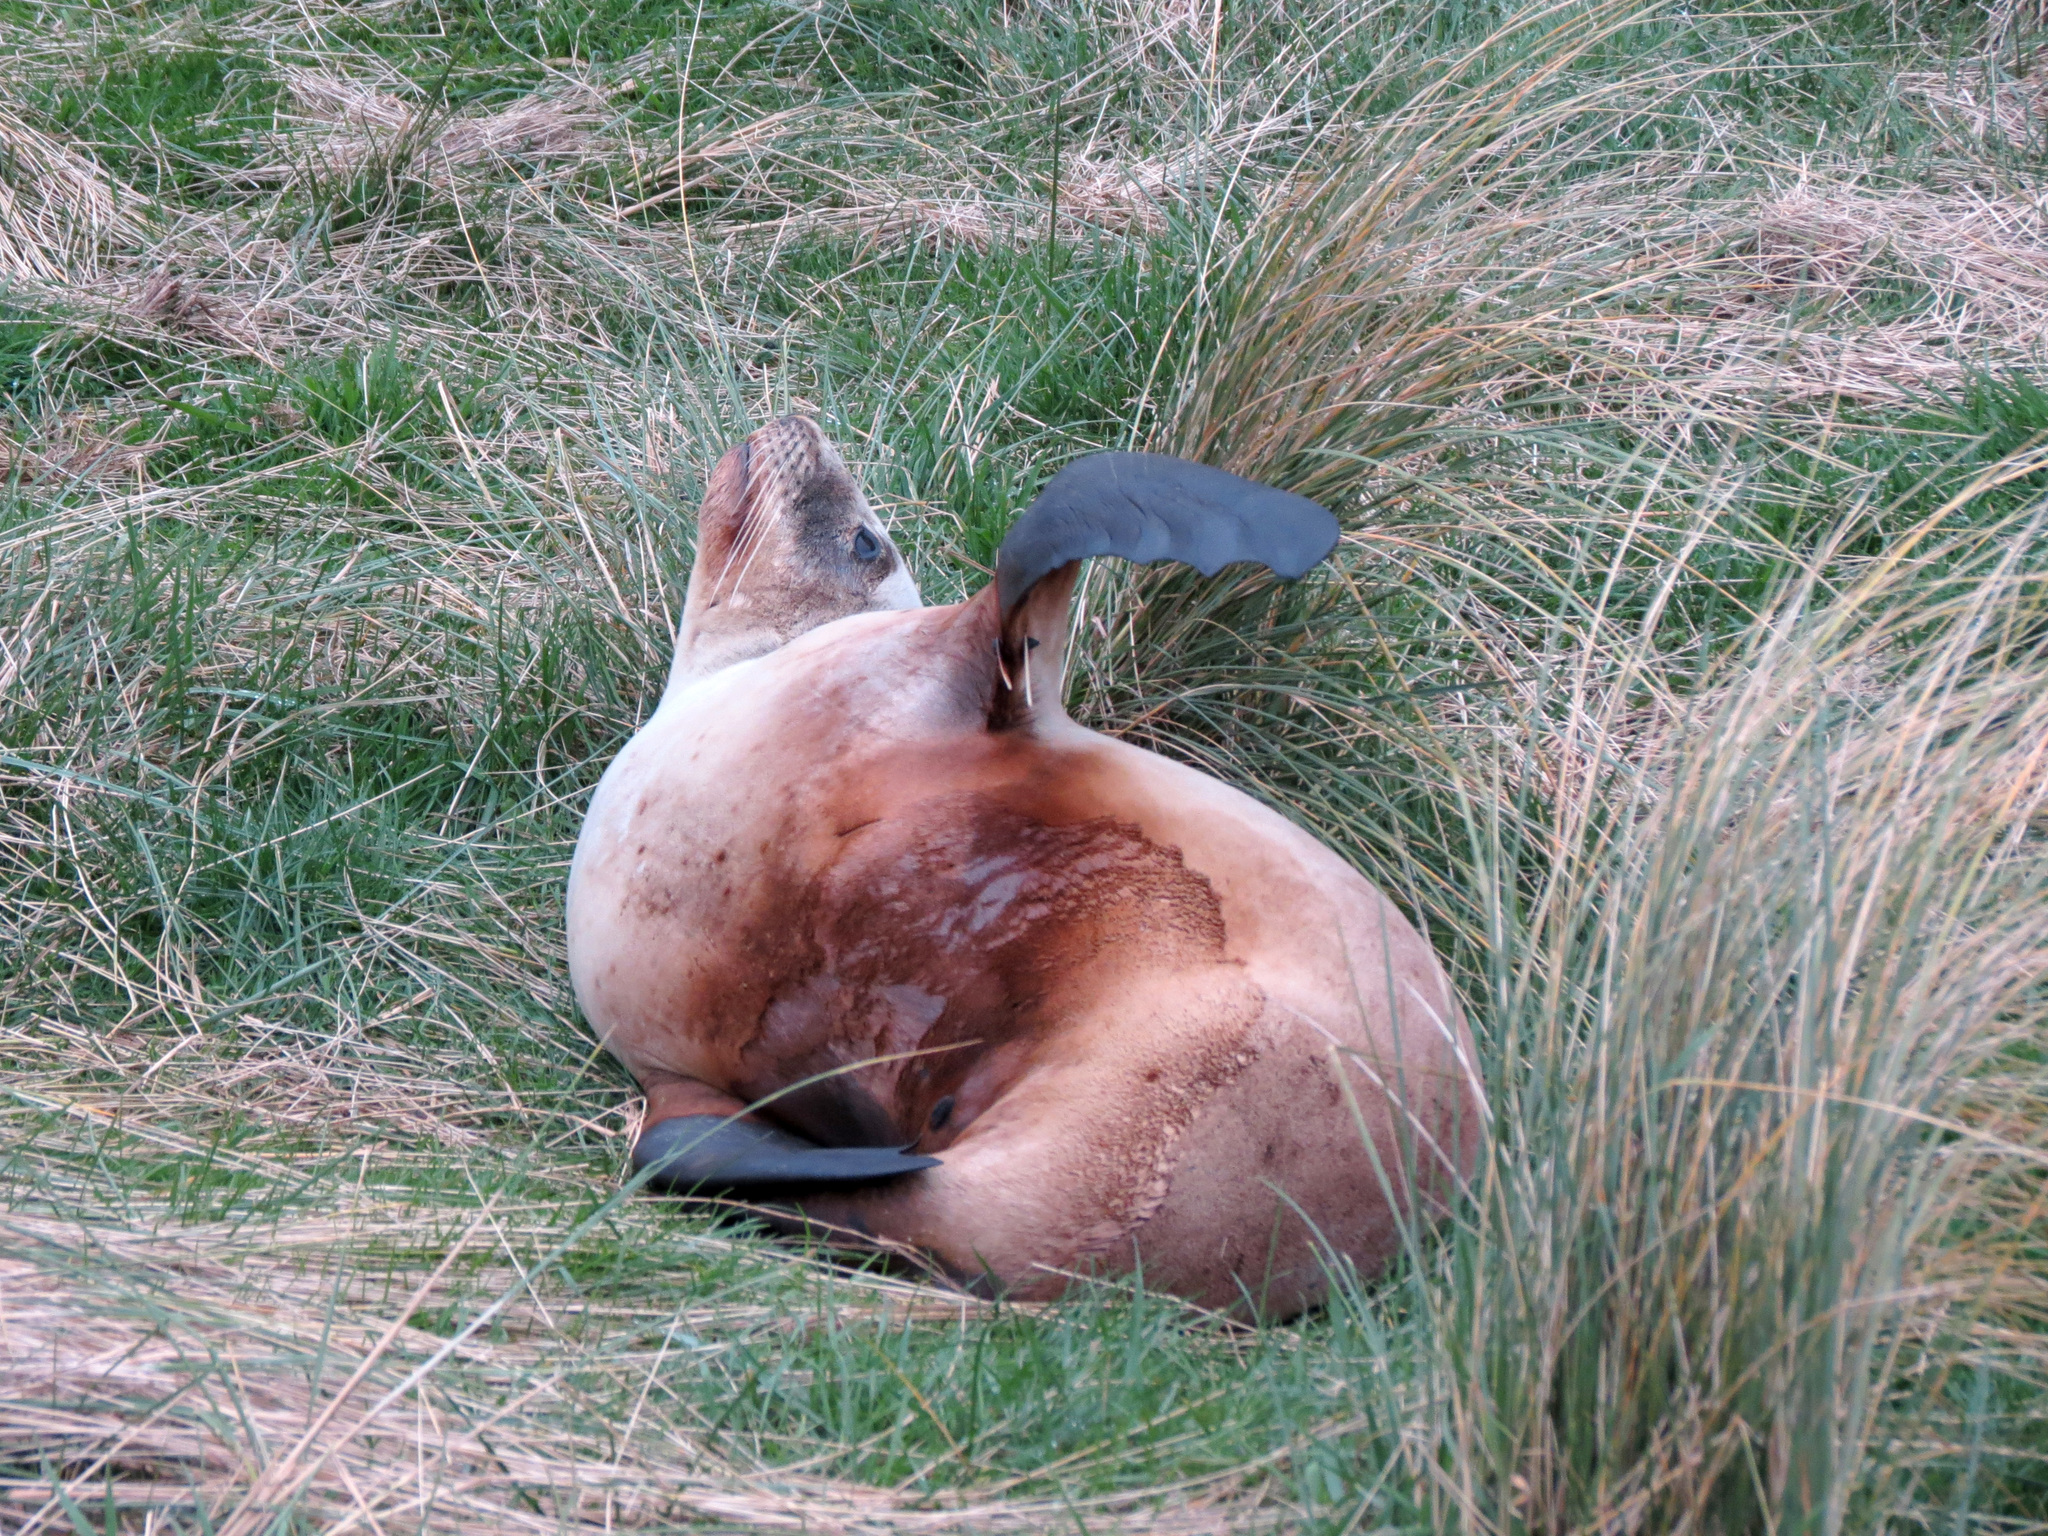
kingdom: Animalia
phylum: Chordata
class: Mammalia
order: Carnivora
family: Otariidae
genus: Phocarctos
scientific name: Phocarctos hookeri
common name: New zealand sea lion
